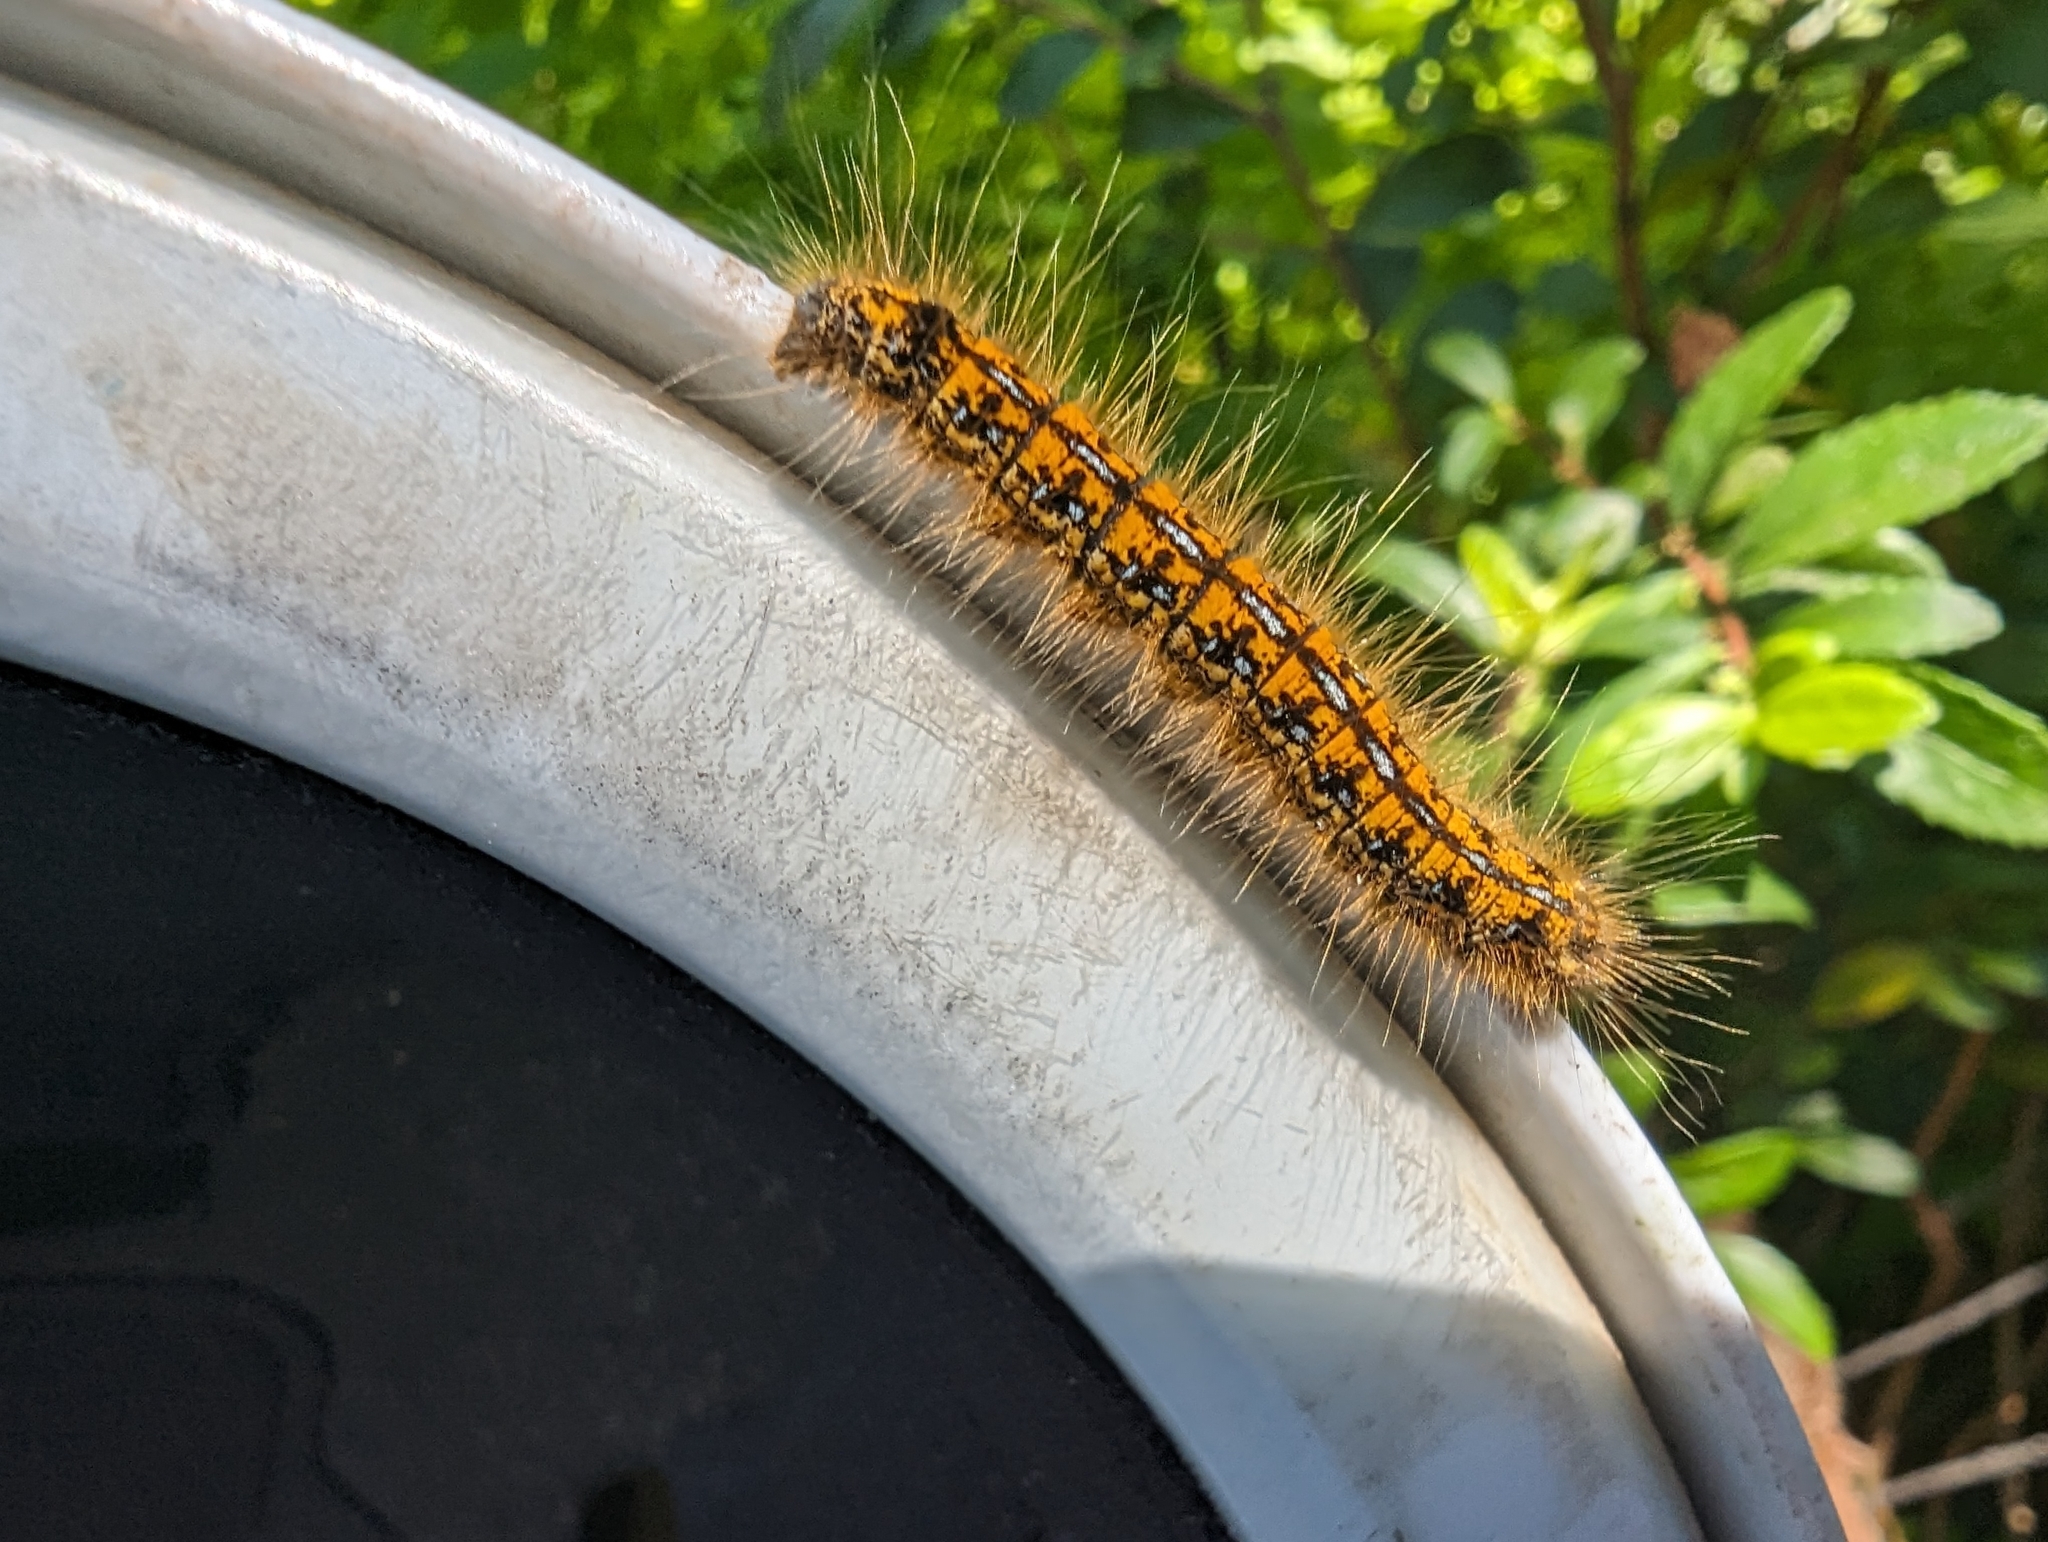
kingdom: Animalia
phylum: Arthropoda
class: Insecta
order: Lepidoptera
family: Lasiocampidae
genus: Malacosoma
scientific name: Malacosoma californica
